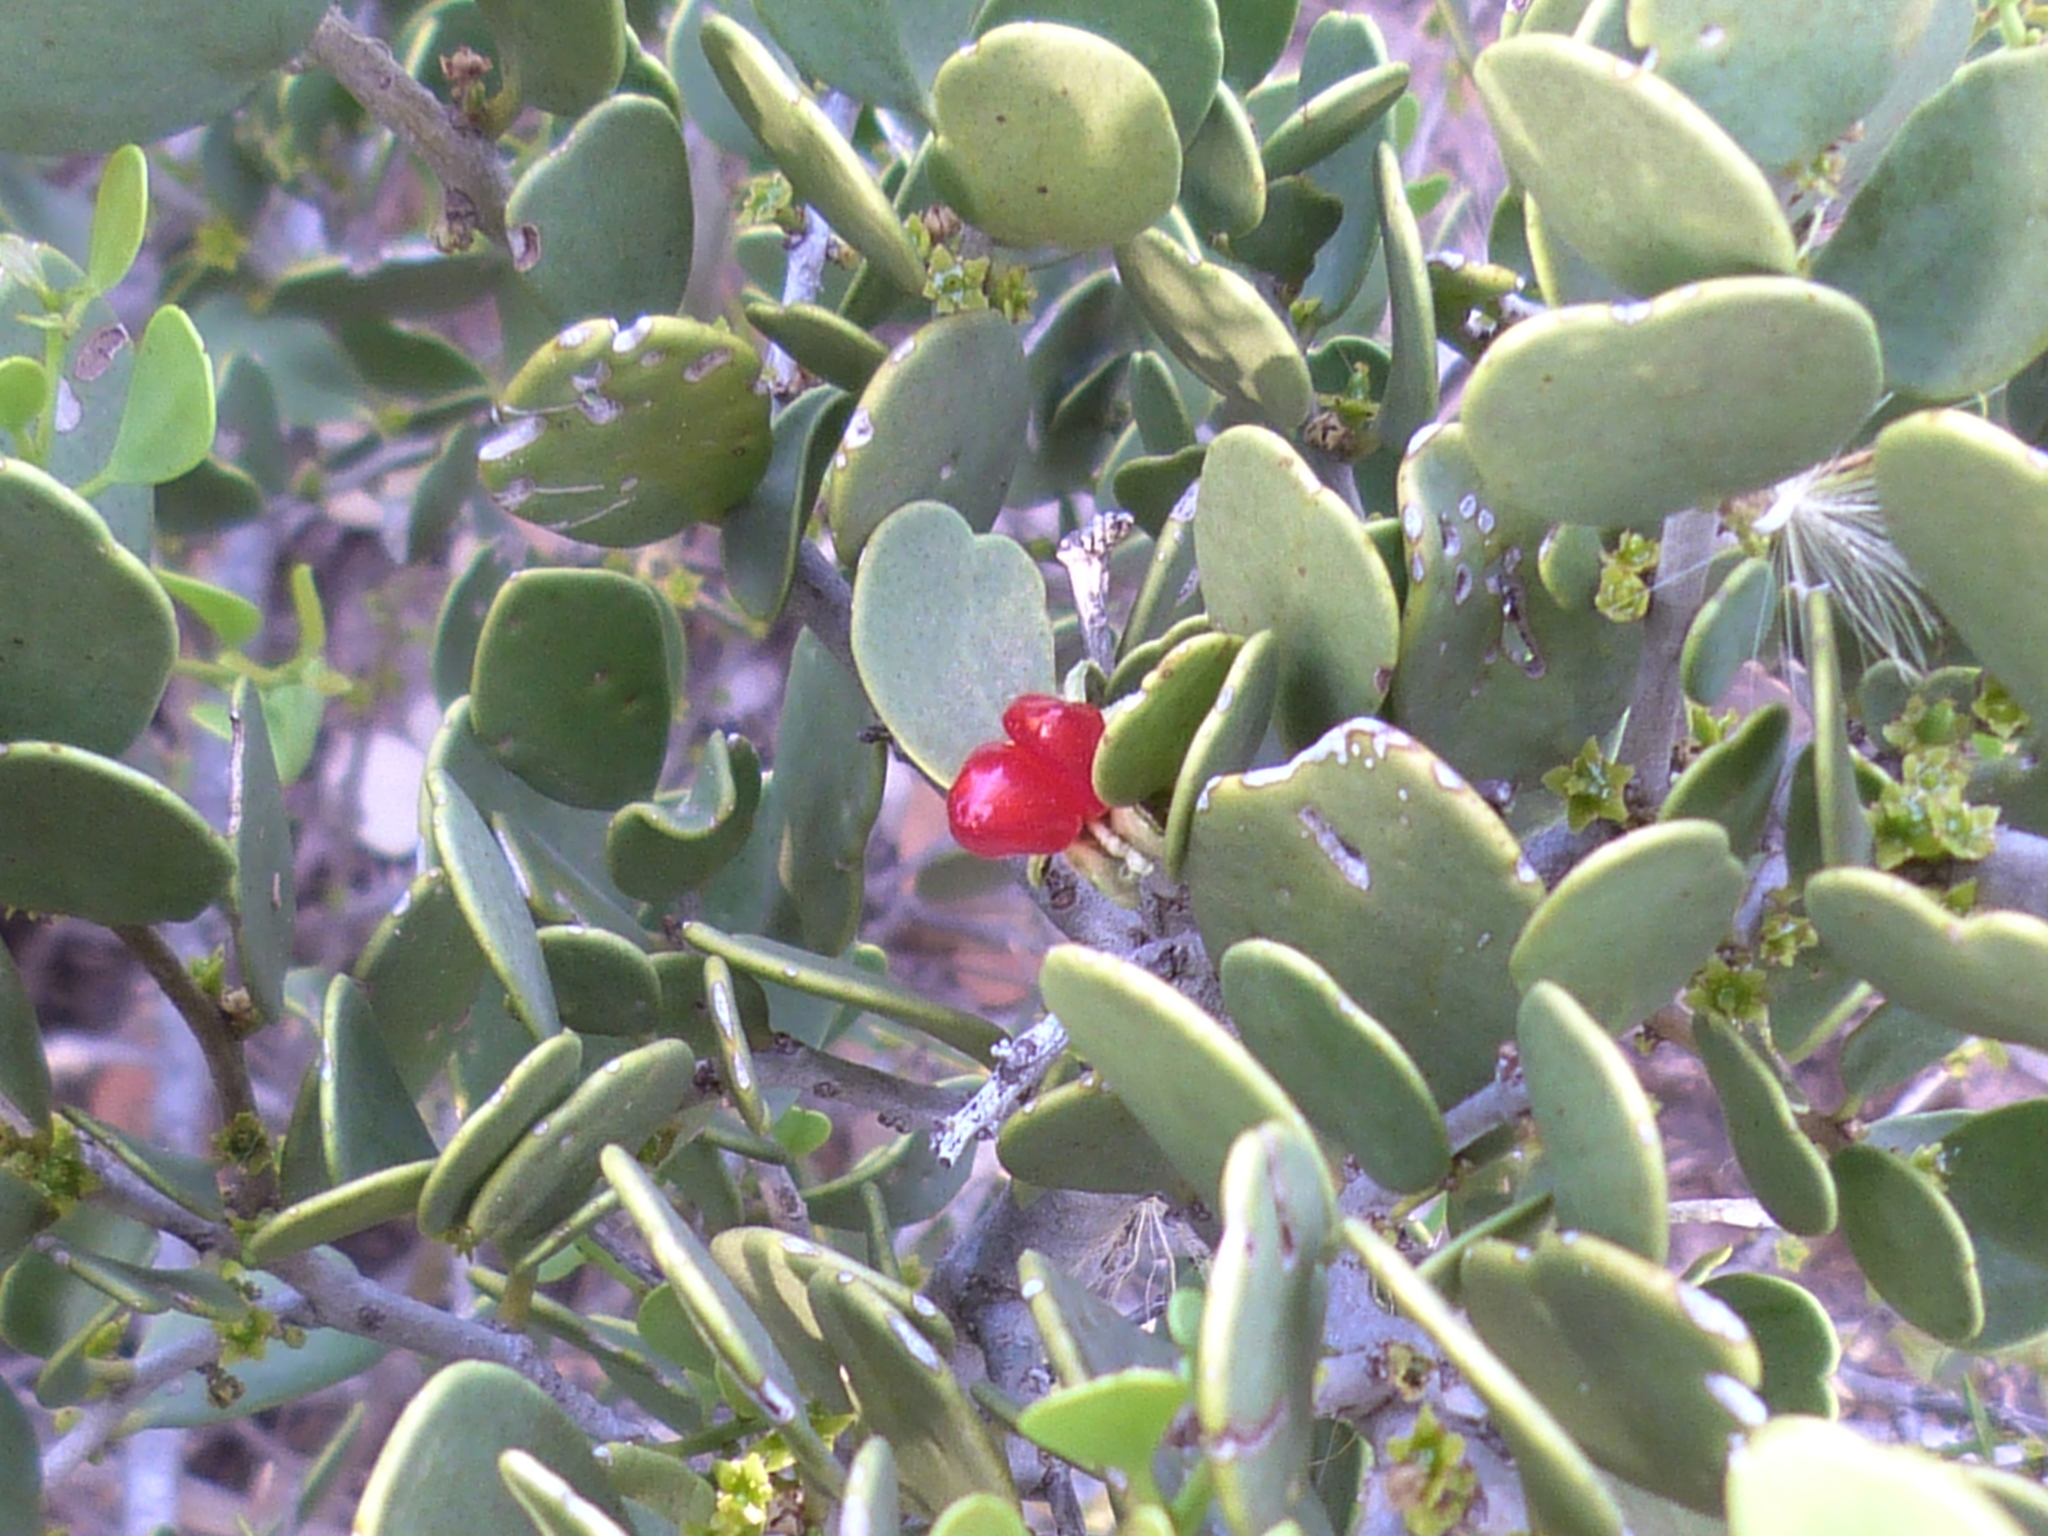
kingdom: Plantae
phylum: Tracheophyta
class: Magnoliopsida
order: Celastrales
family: Celastraceae
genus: Tricerma
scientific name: Tricerma vitis-idaeum
